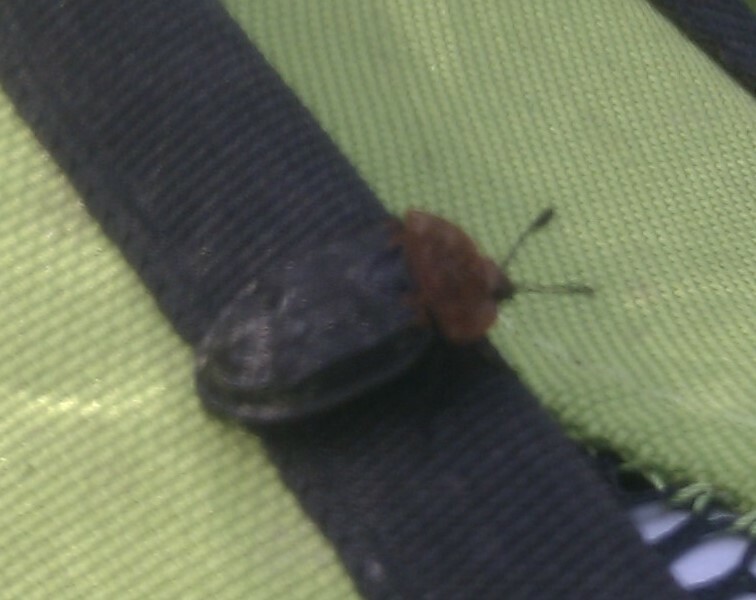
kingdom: Animalia
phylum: Arthropoda
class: Insecta
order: Coleoptera
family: Staphylinidae
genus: Oiceoptoma
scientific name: Oiceoptoma thoracicum
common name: Red-breasted carrion beetle
